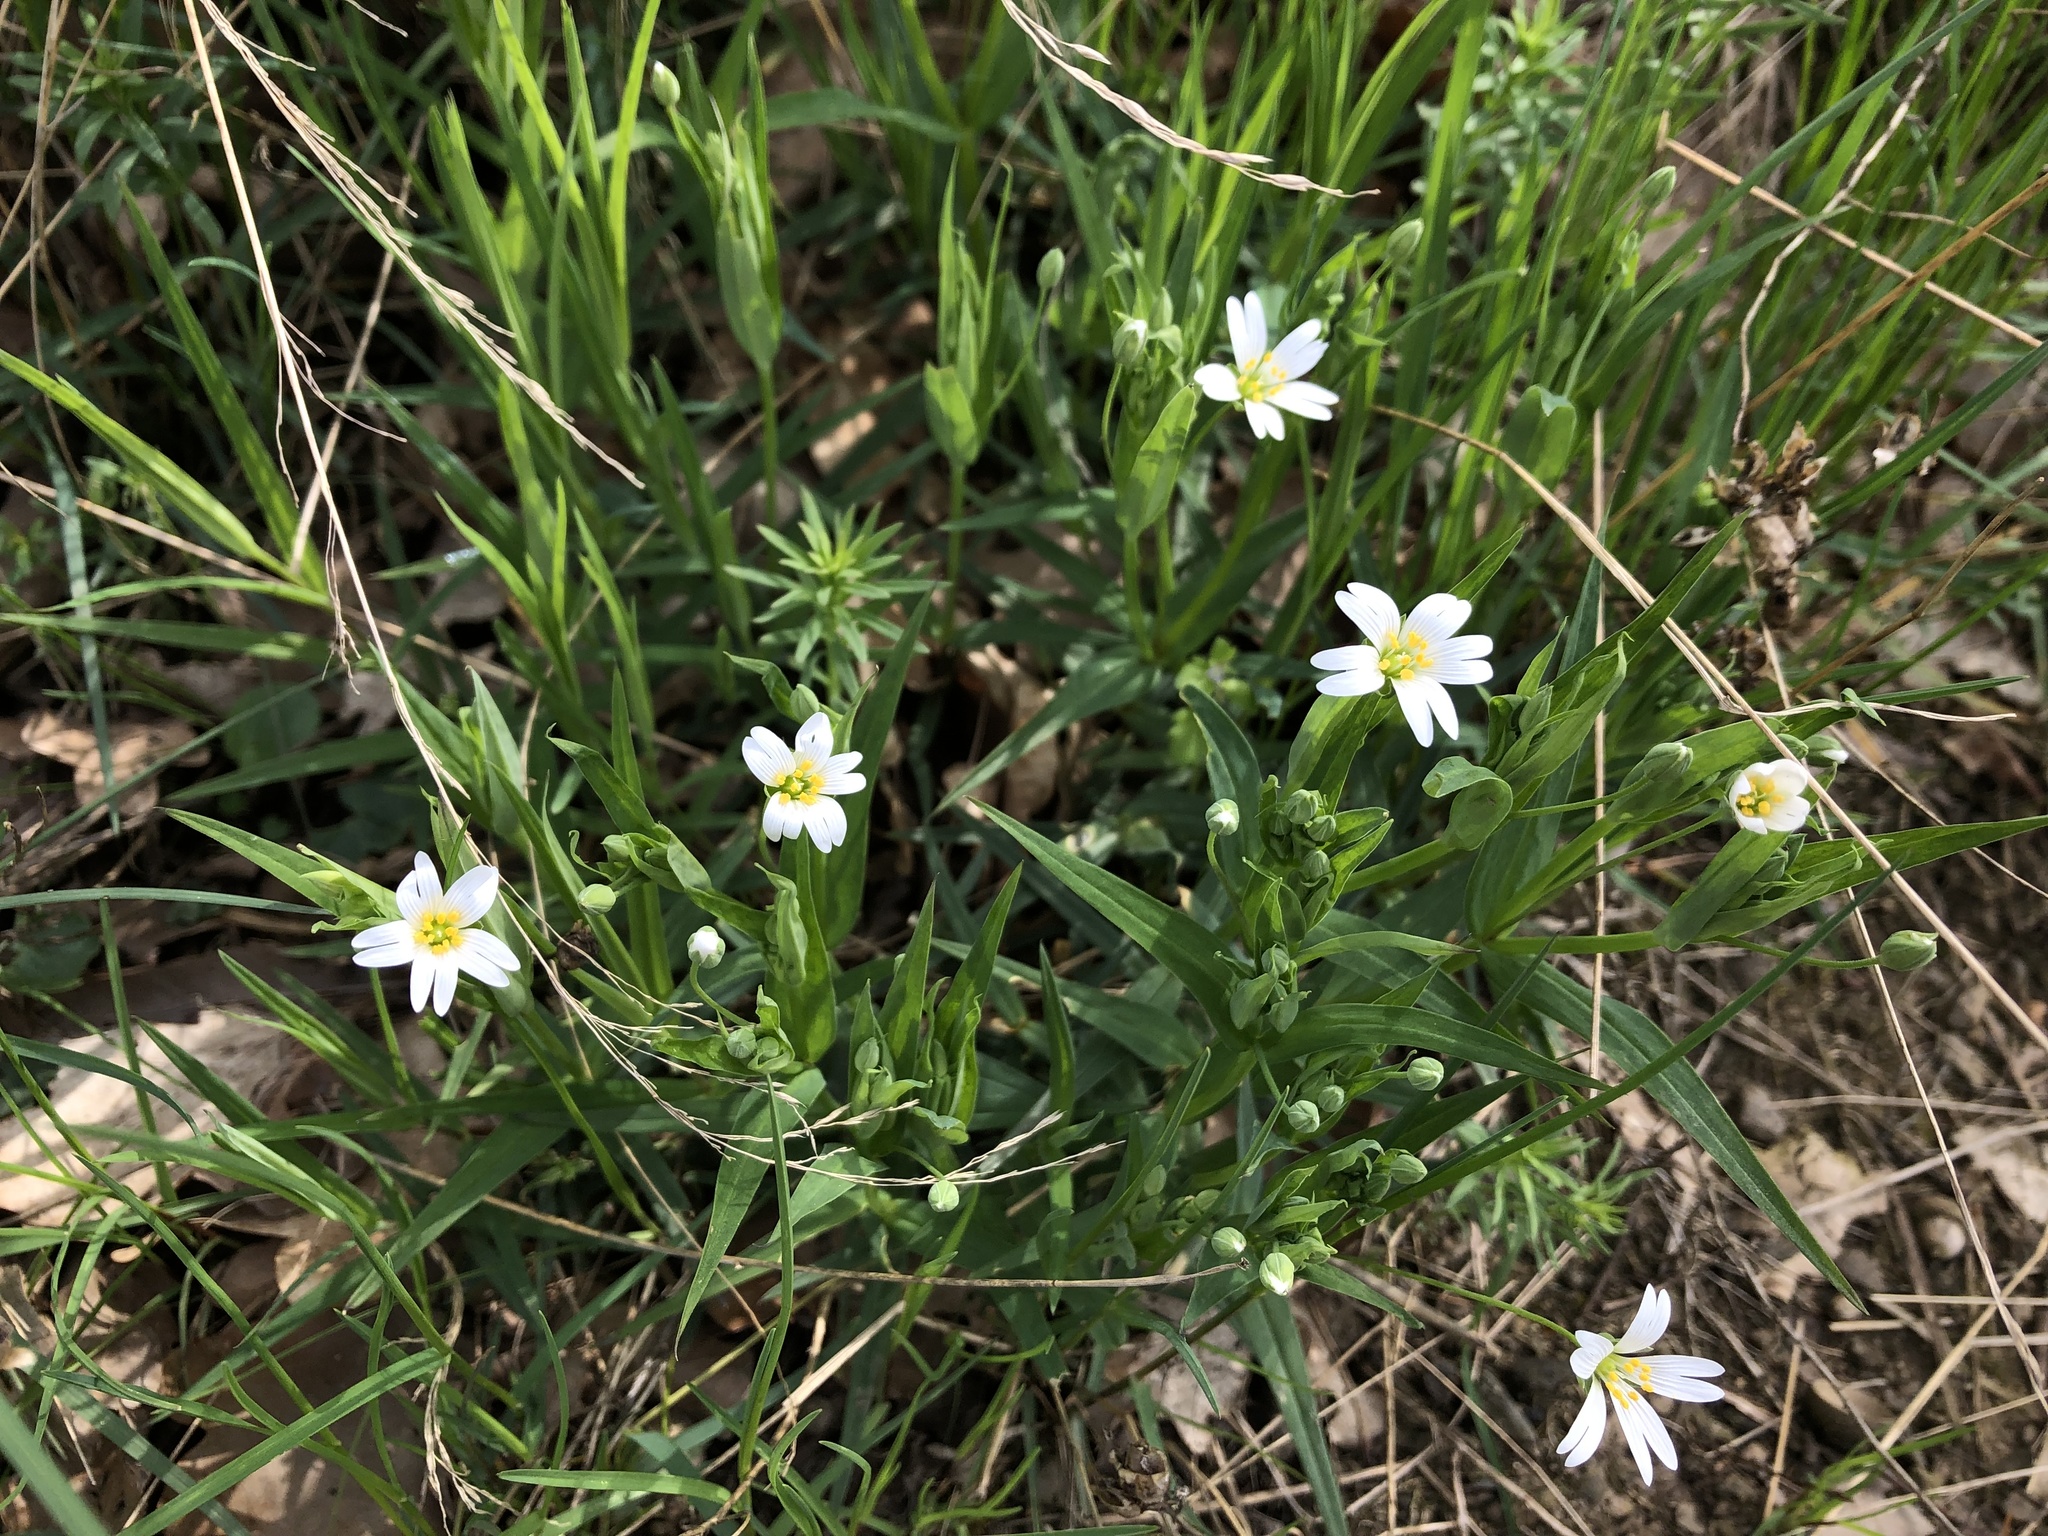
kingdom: Plantae
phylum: Tracheophyta
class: Magnoliopsida
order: Caryophyllales
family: Caryophyllaceae
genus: Rabelera
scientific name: Rabelera holostea
